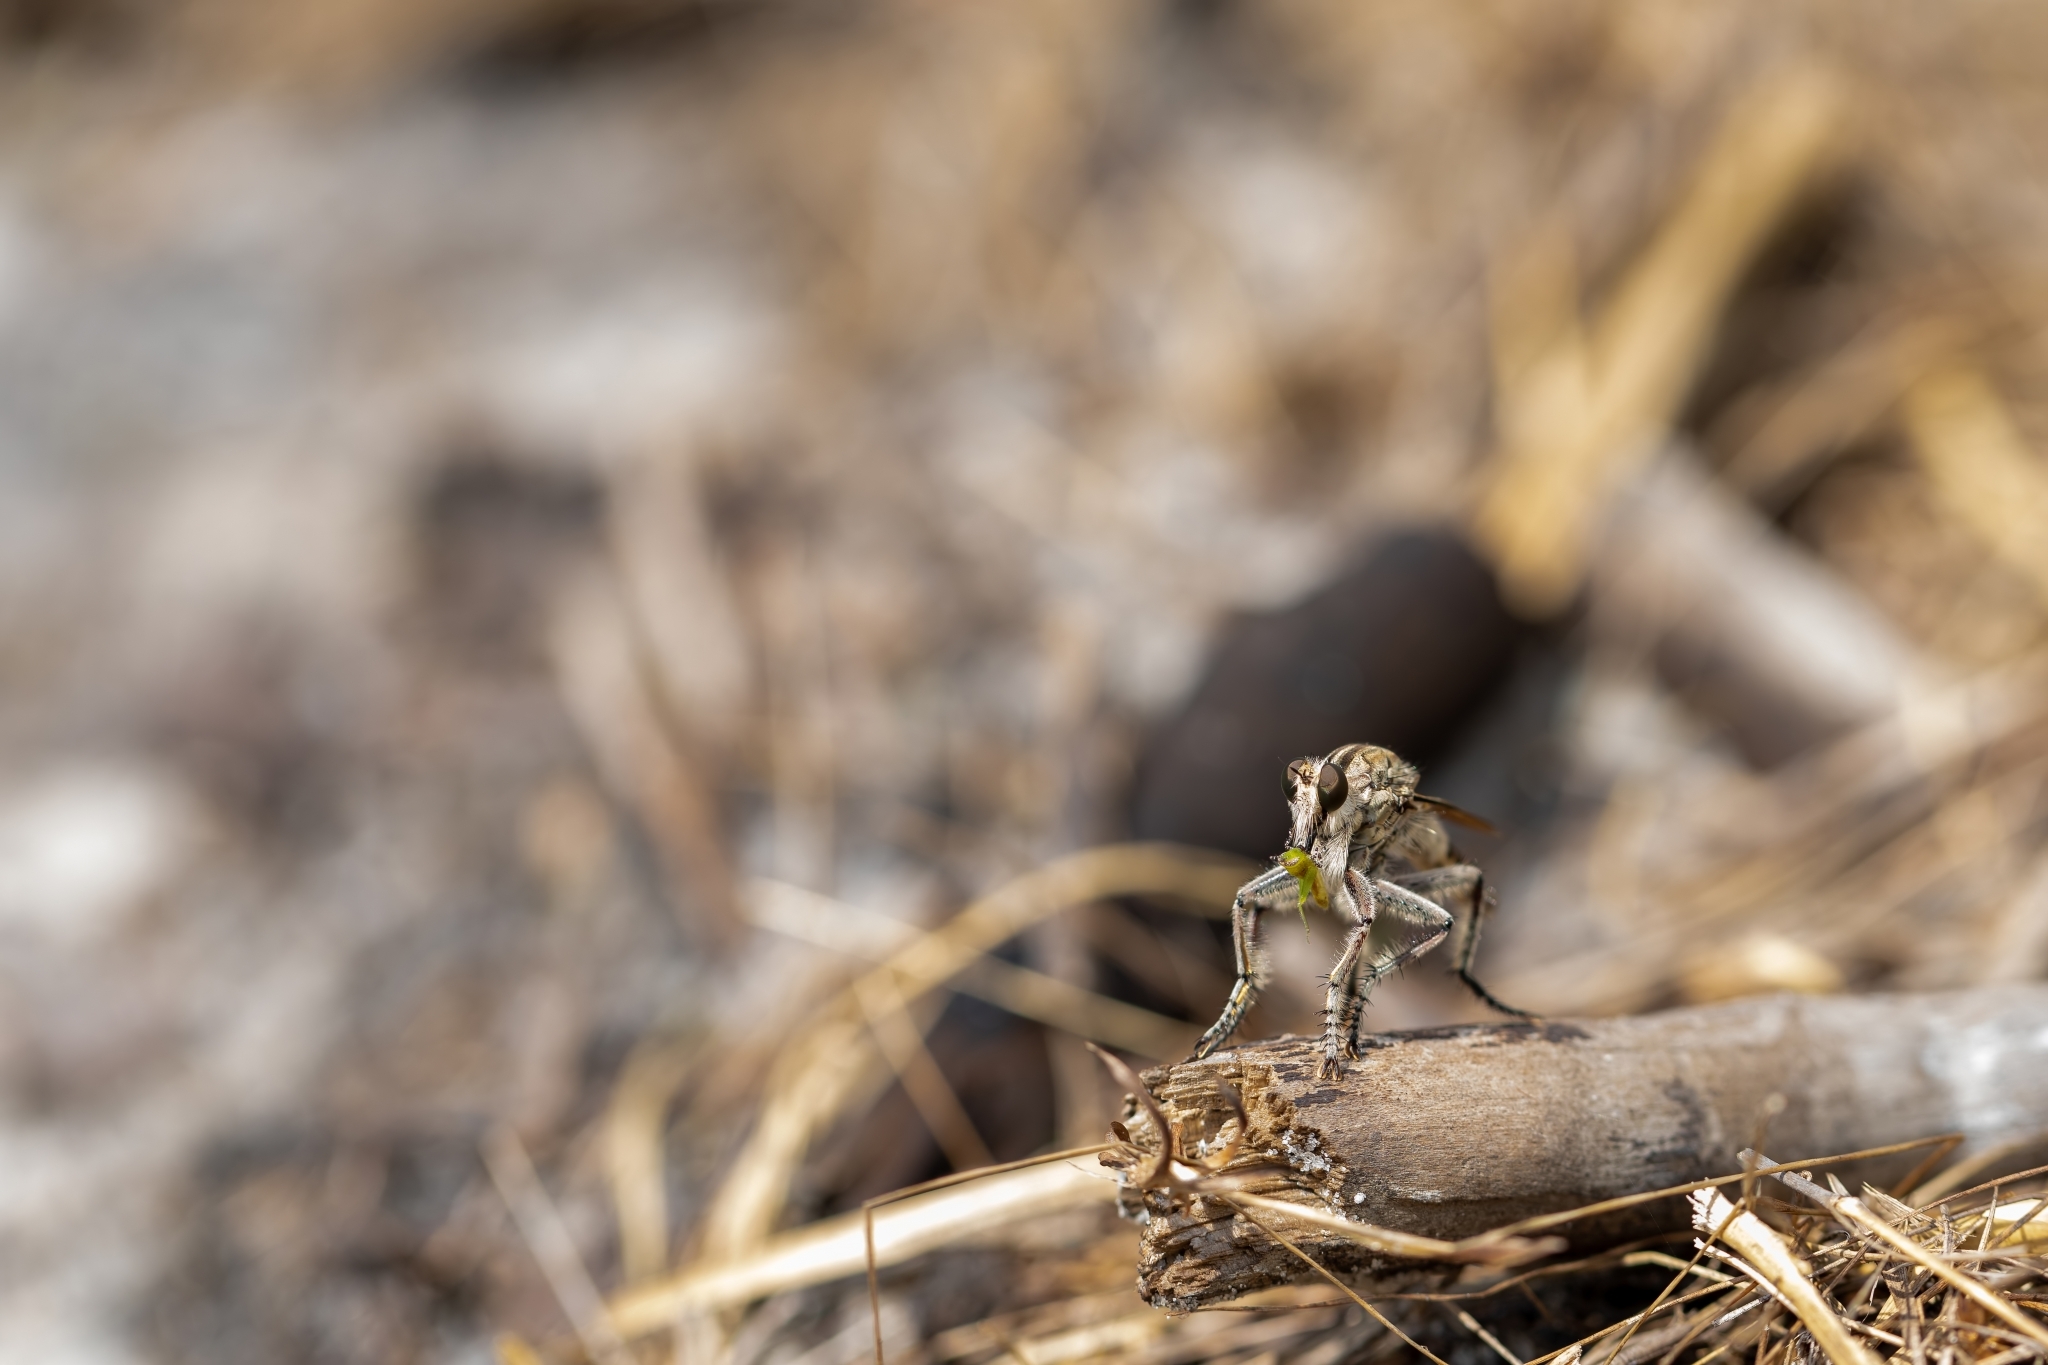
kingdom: Animalia
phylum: Arthropoda
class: Insecta
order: Diptera
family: Asilidae
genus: Triorla
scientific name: Triorla interrupta
